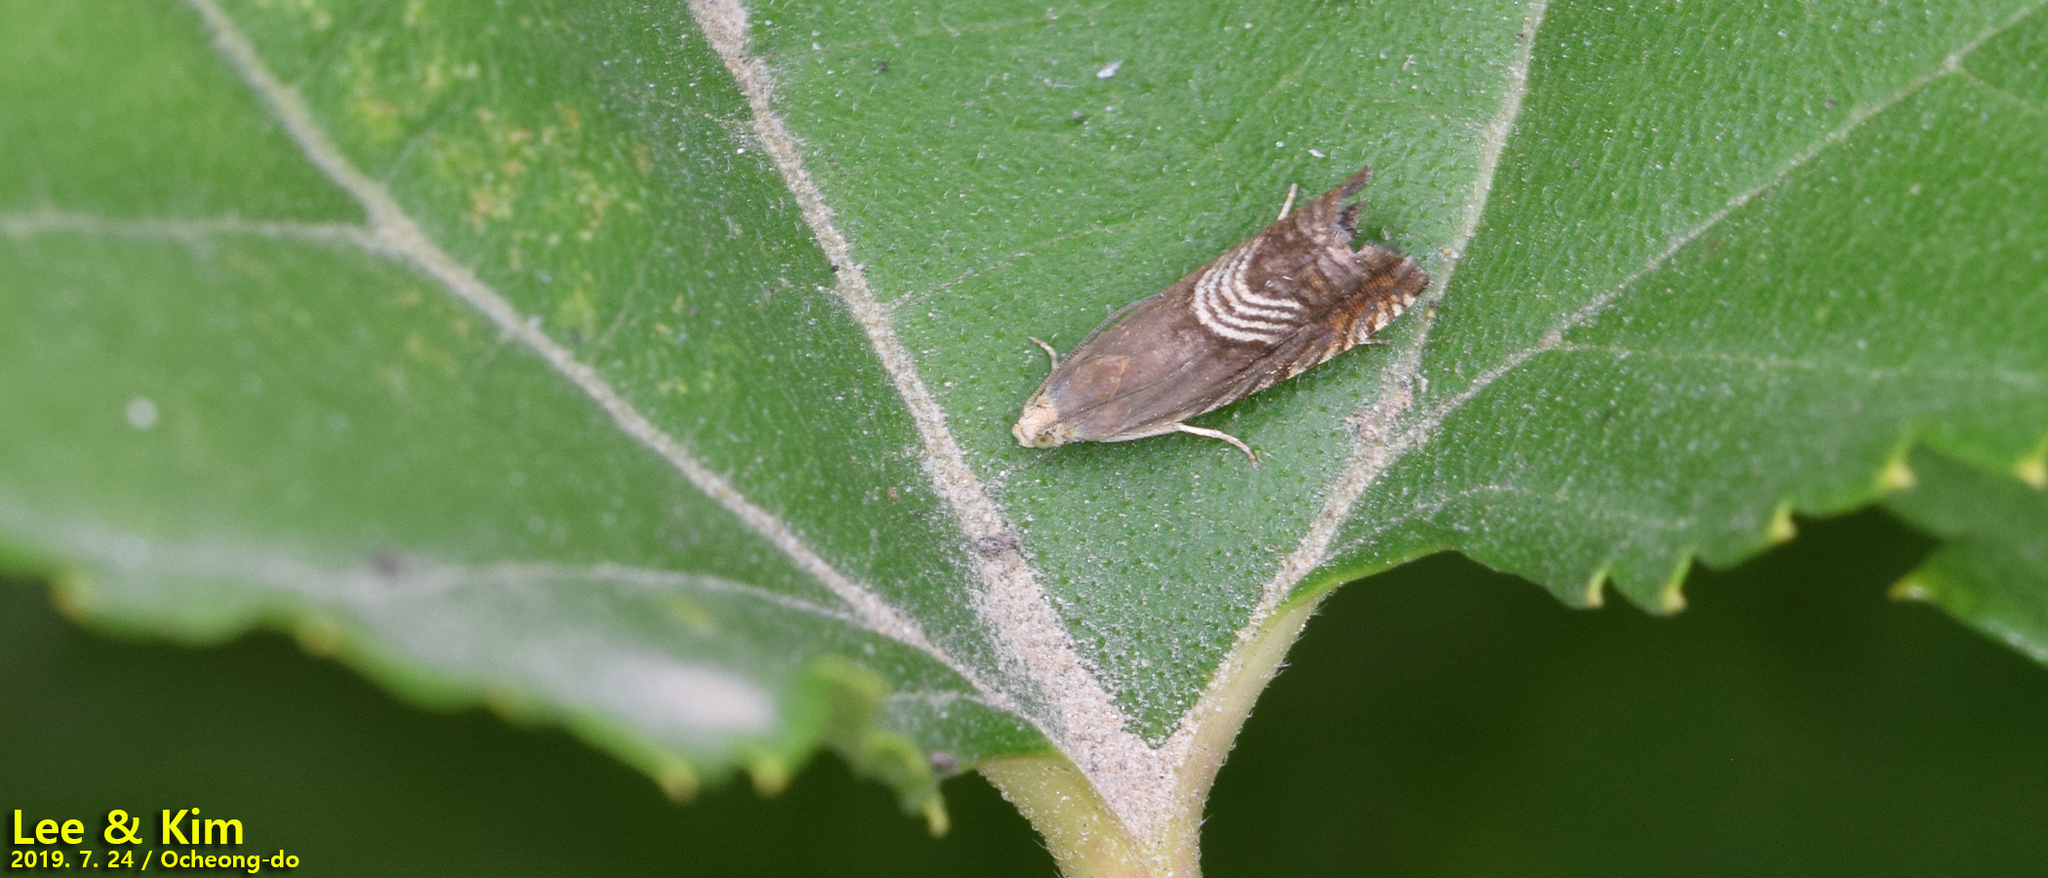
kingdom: Animalia
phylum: Arthropoda
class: Insecta
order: Lepidoptera
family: Tortricidae
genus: Grapholita
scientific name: Grapholita delineana
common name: Eurasian hemp moth
